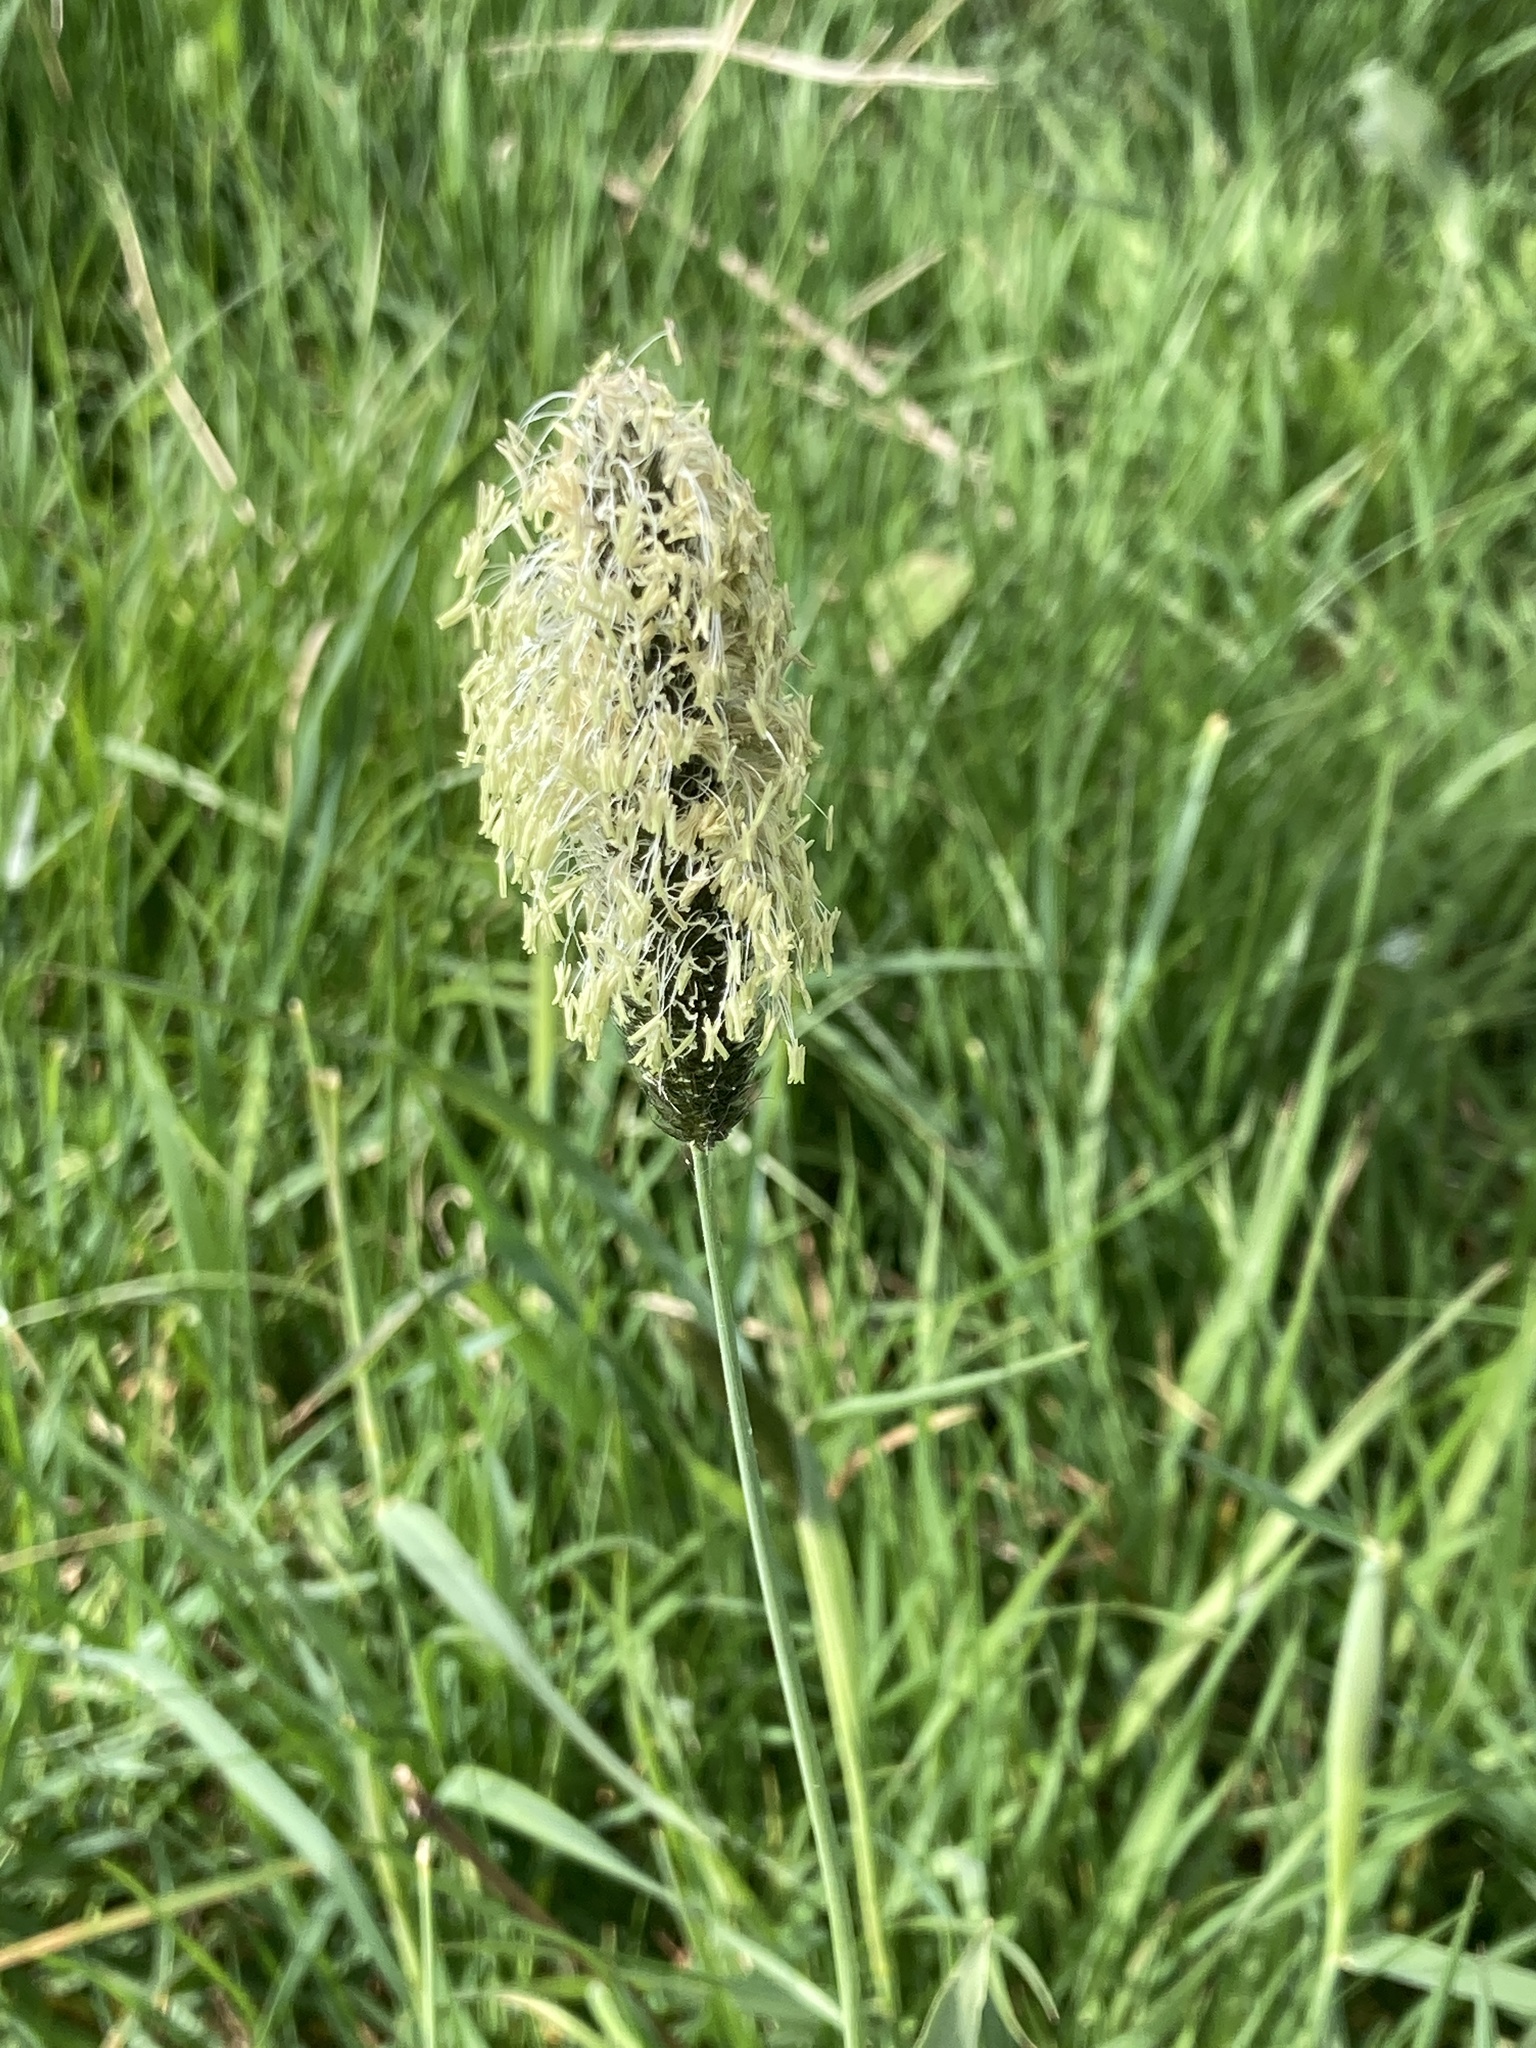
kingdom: Plantae
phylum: Tracheophyta
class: Liliopsida
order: Poales
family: Poaceae
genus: Alopecurus
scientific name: Alopecurus pratensis
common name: Meadow foxtail
